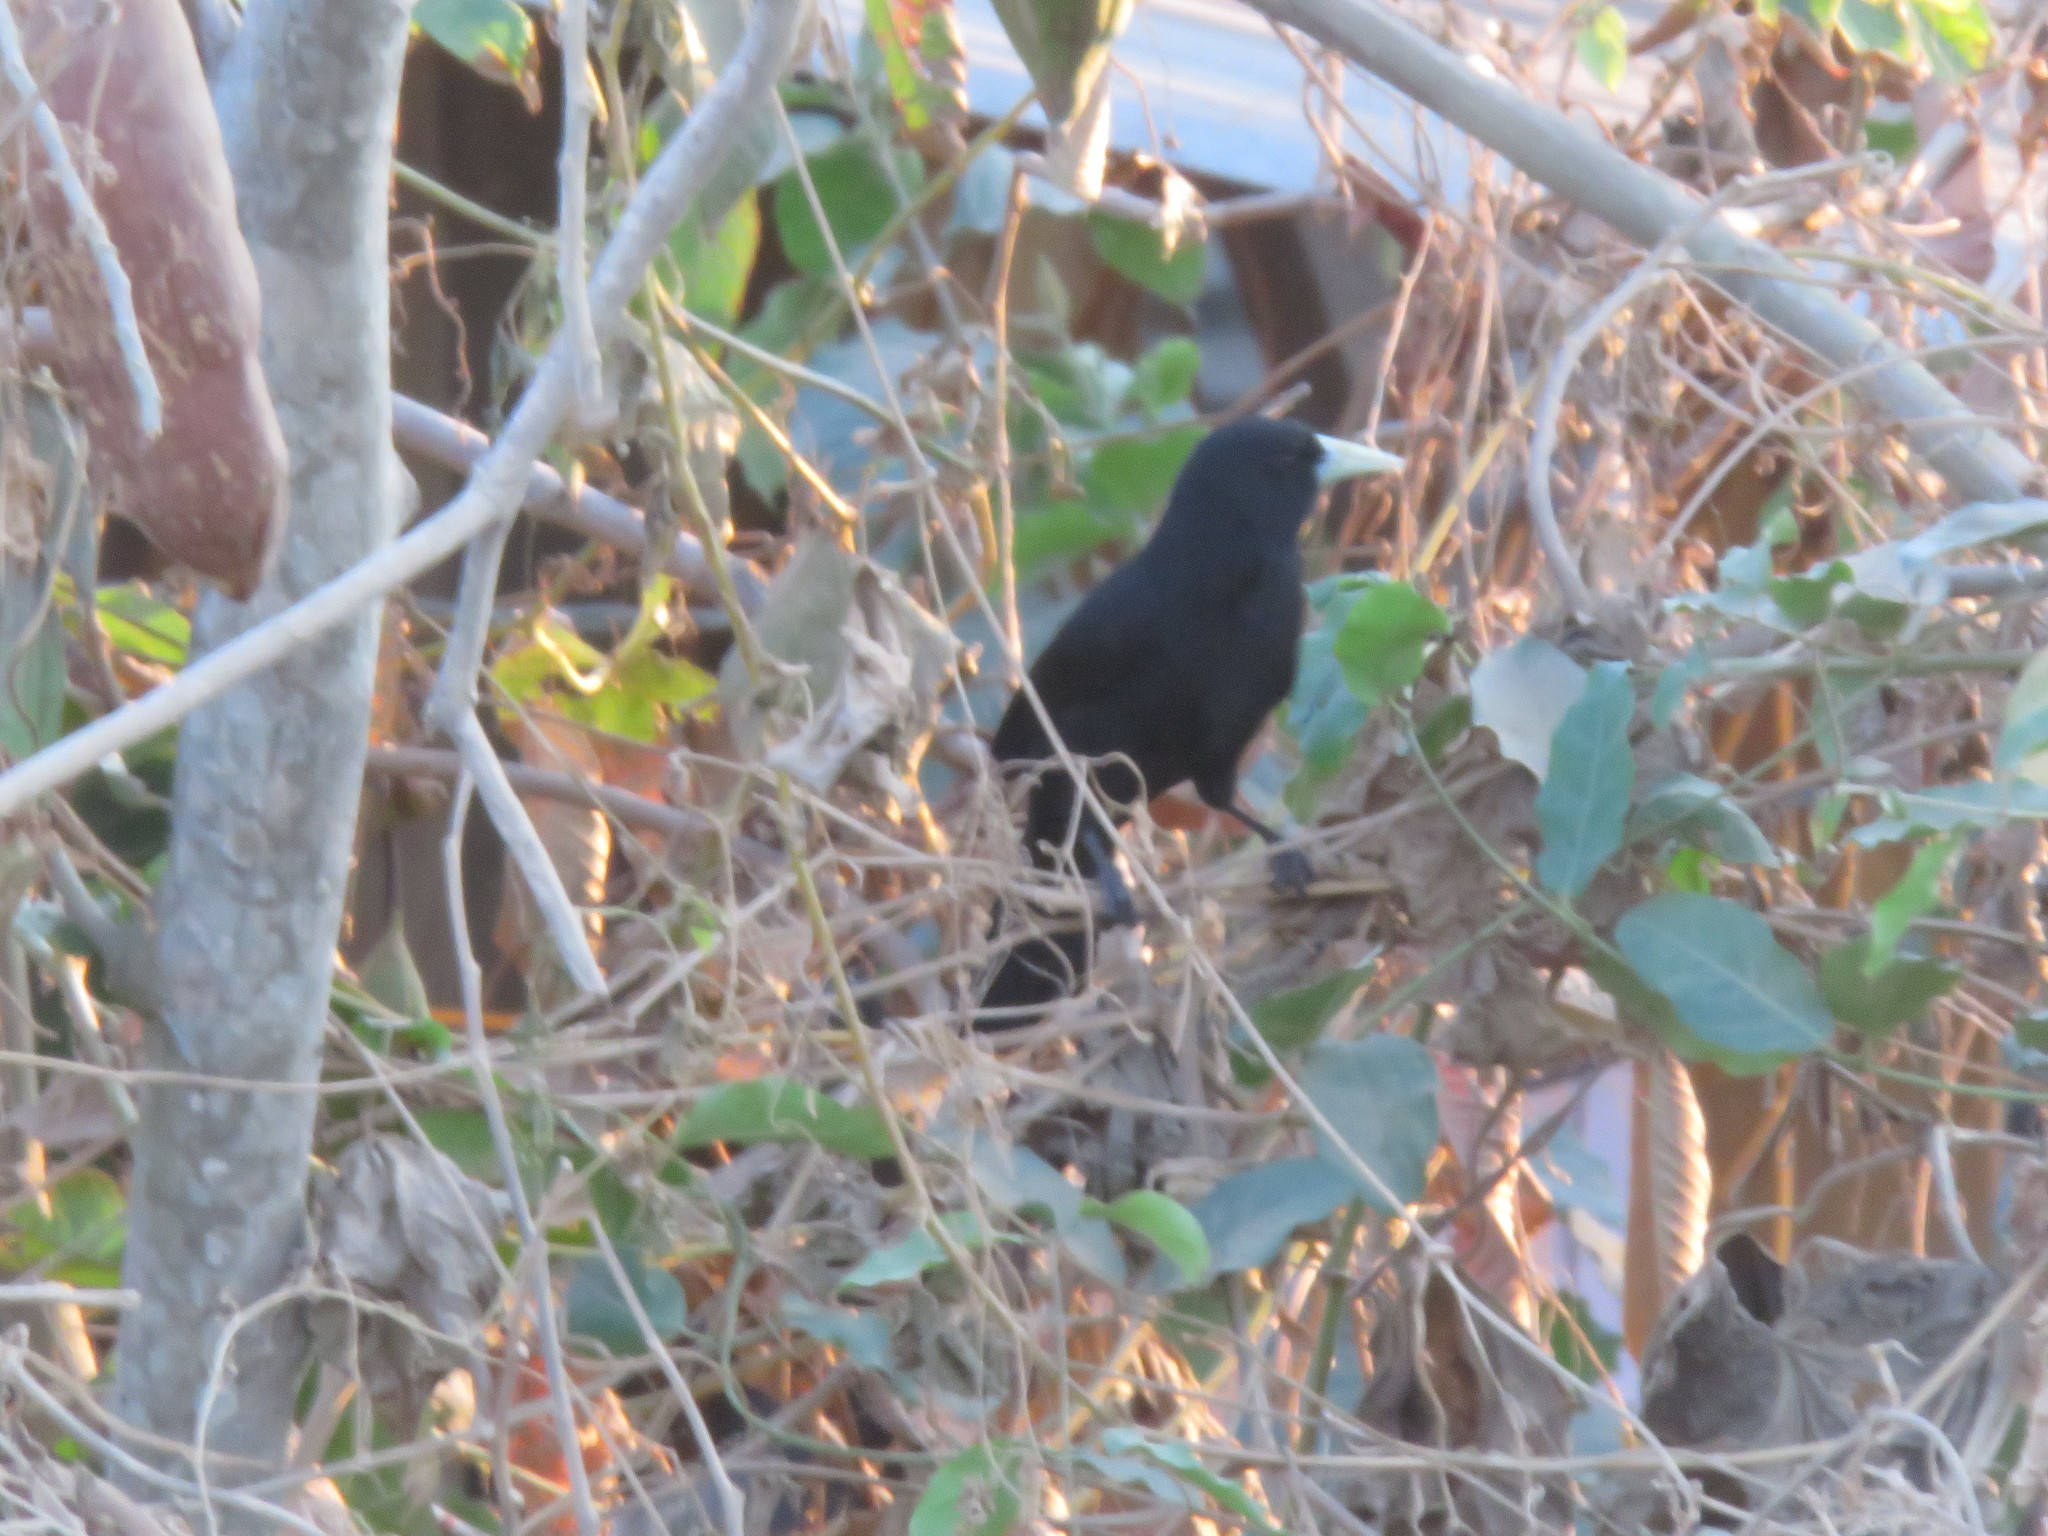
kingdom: Animalia
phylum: Chordata
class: Aves
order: Passeriformes
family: Icteridae
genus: Cacicus
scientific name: Cacicus solitarius
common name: Solitary cacique
